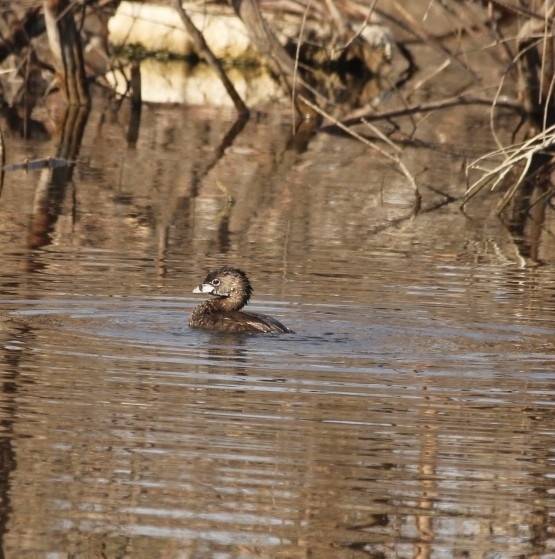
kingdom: Animalia
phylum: Chordata
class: Aves
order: Podicipediformes
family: Podicipedidae
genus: Podilymbus
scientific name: Podilymbus podiceps
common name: Pied-billed grebe
